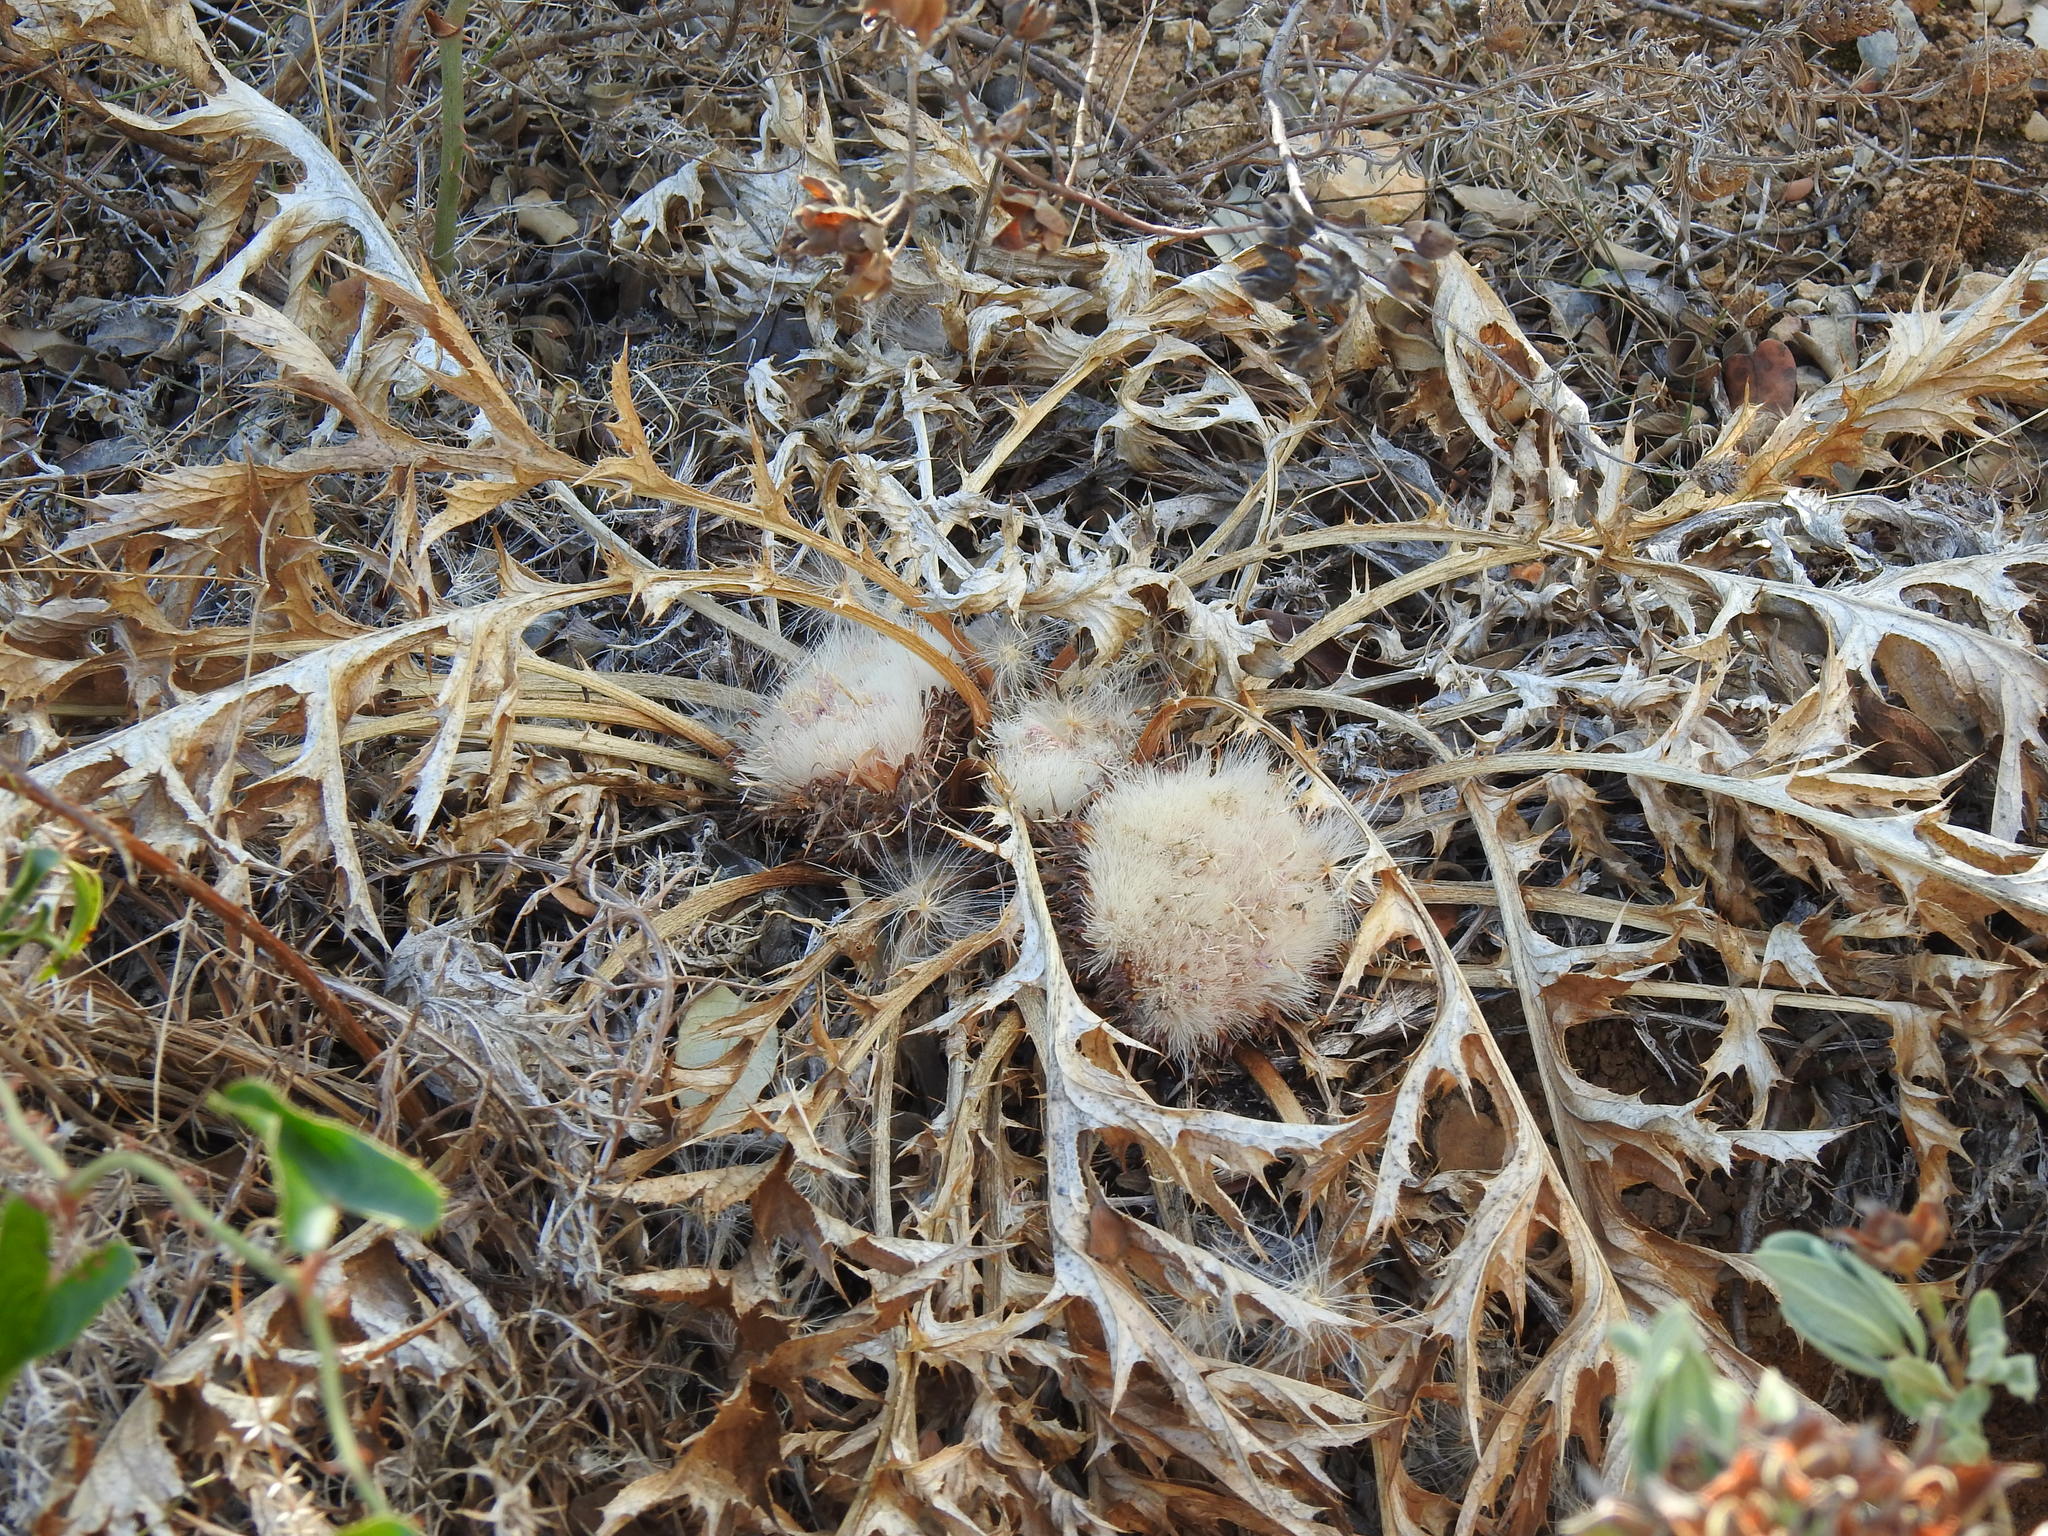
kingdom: Plantae
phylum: Tracheophyta
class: Magnoliopsida
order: Asterales
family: Asteraceae
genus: Chamaeleon
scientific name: Chamaeleon gummifer
